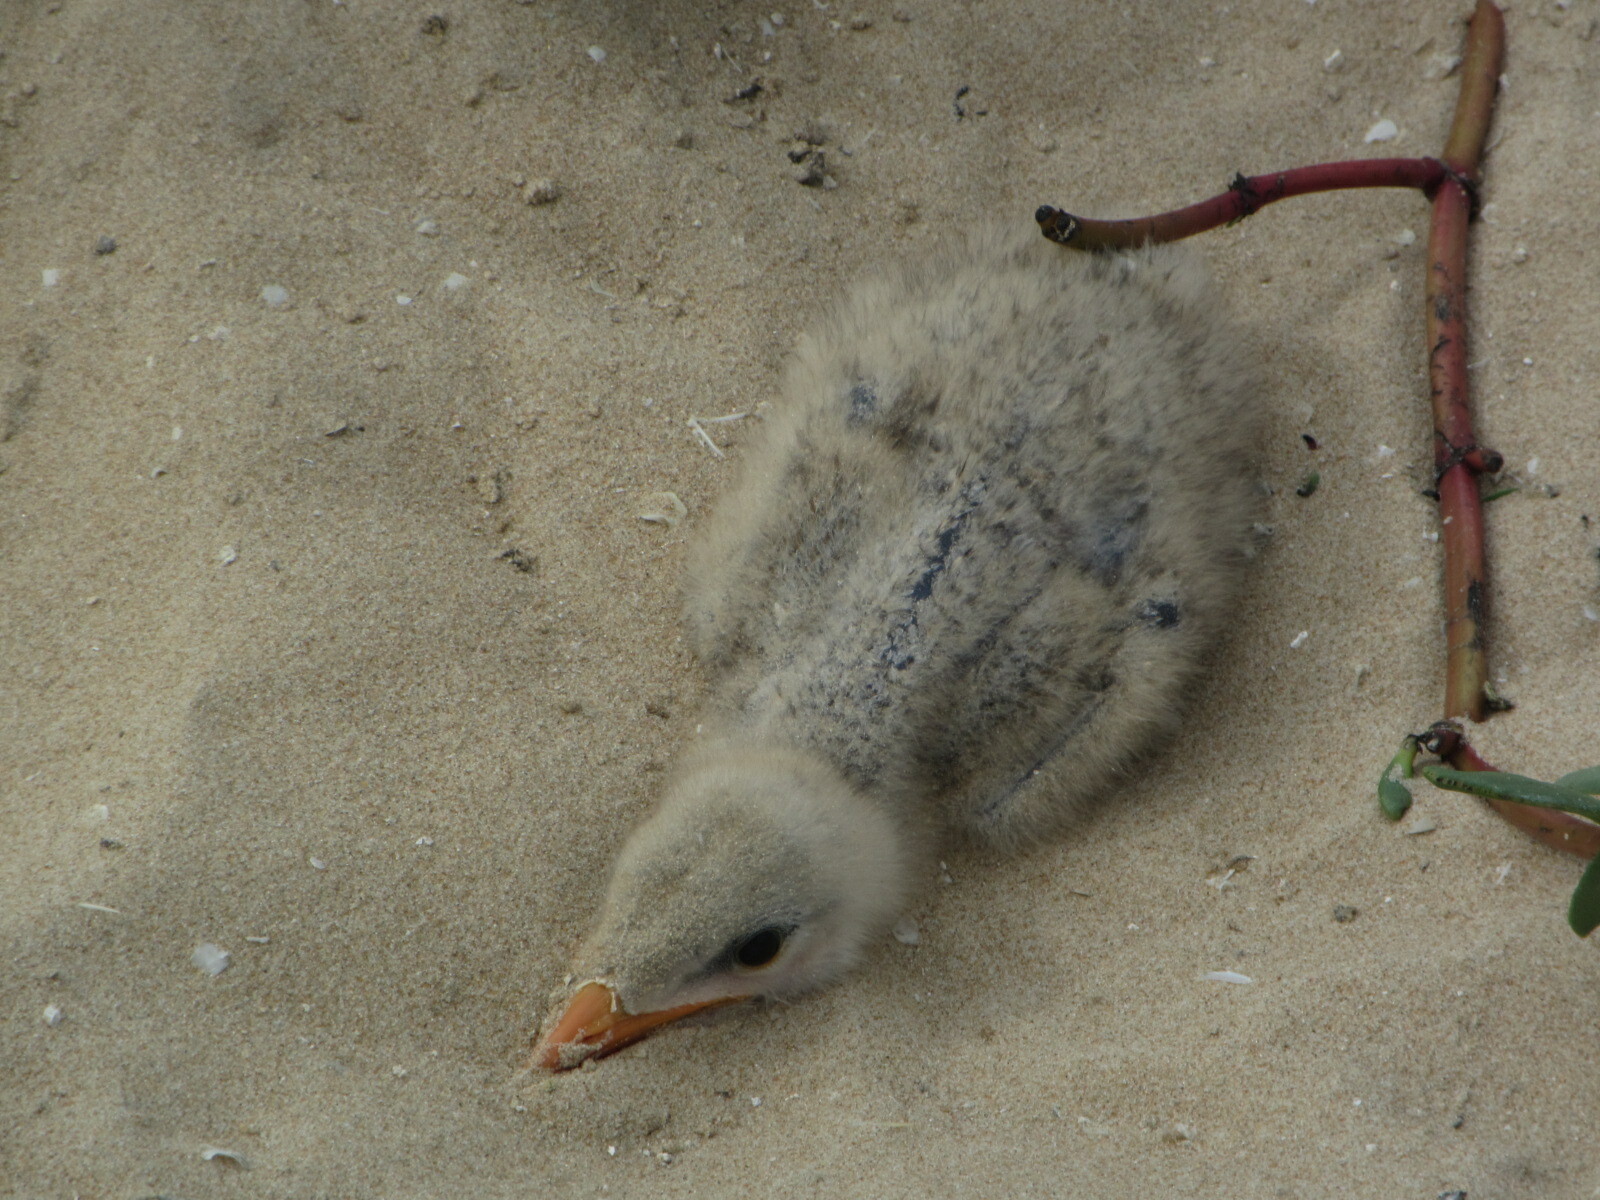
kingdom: Animalia
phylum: Chordata
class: Aves
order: Charadriiformes
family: Laridae
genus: Hydroprogne
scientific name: Hydroprogne caspia
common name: Caspian tern
